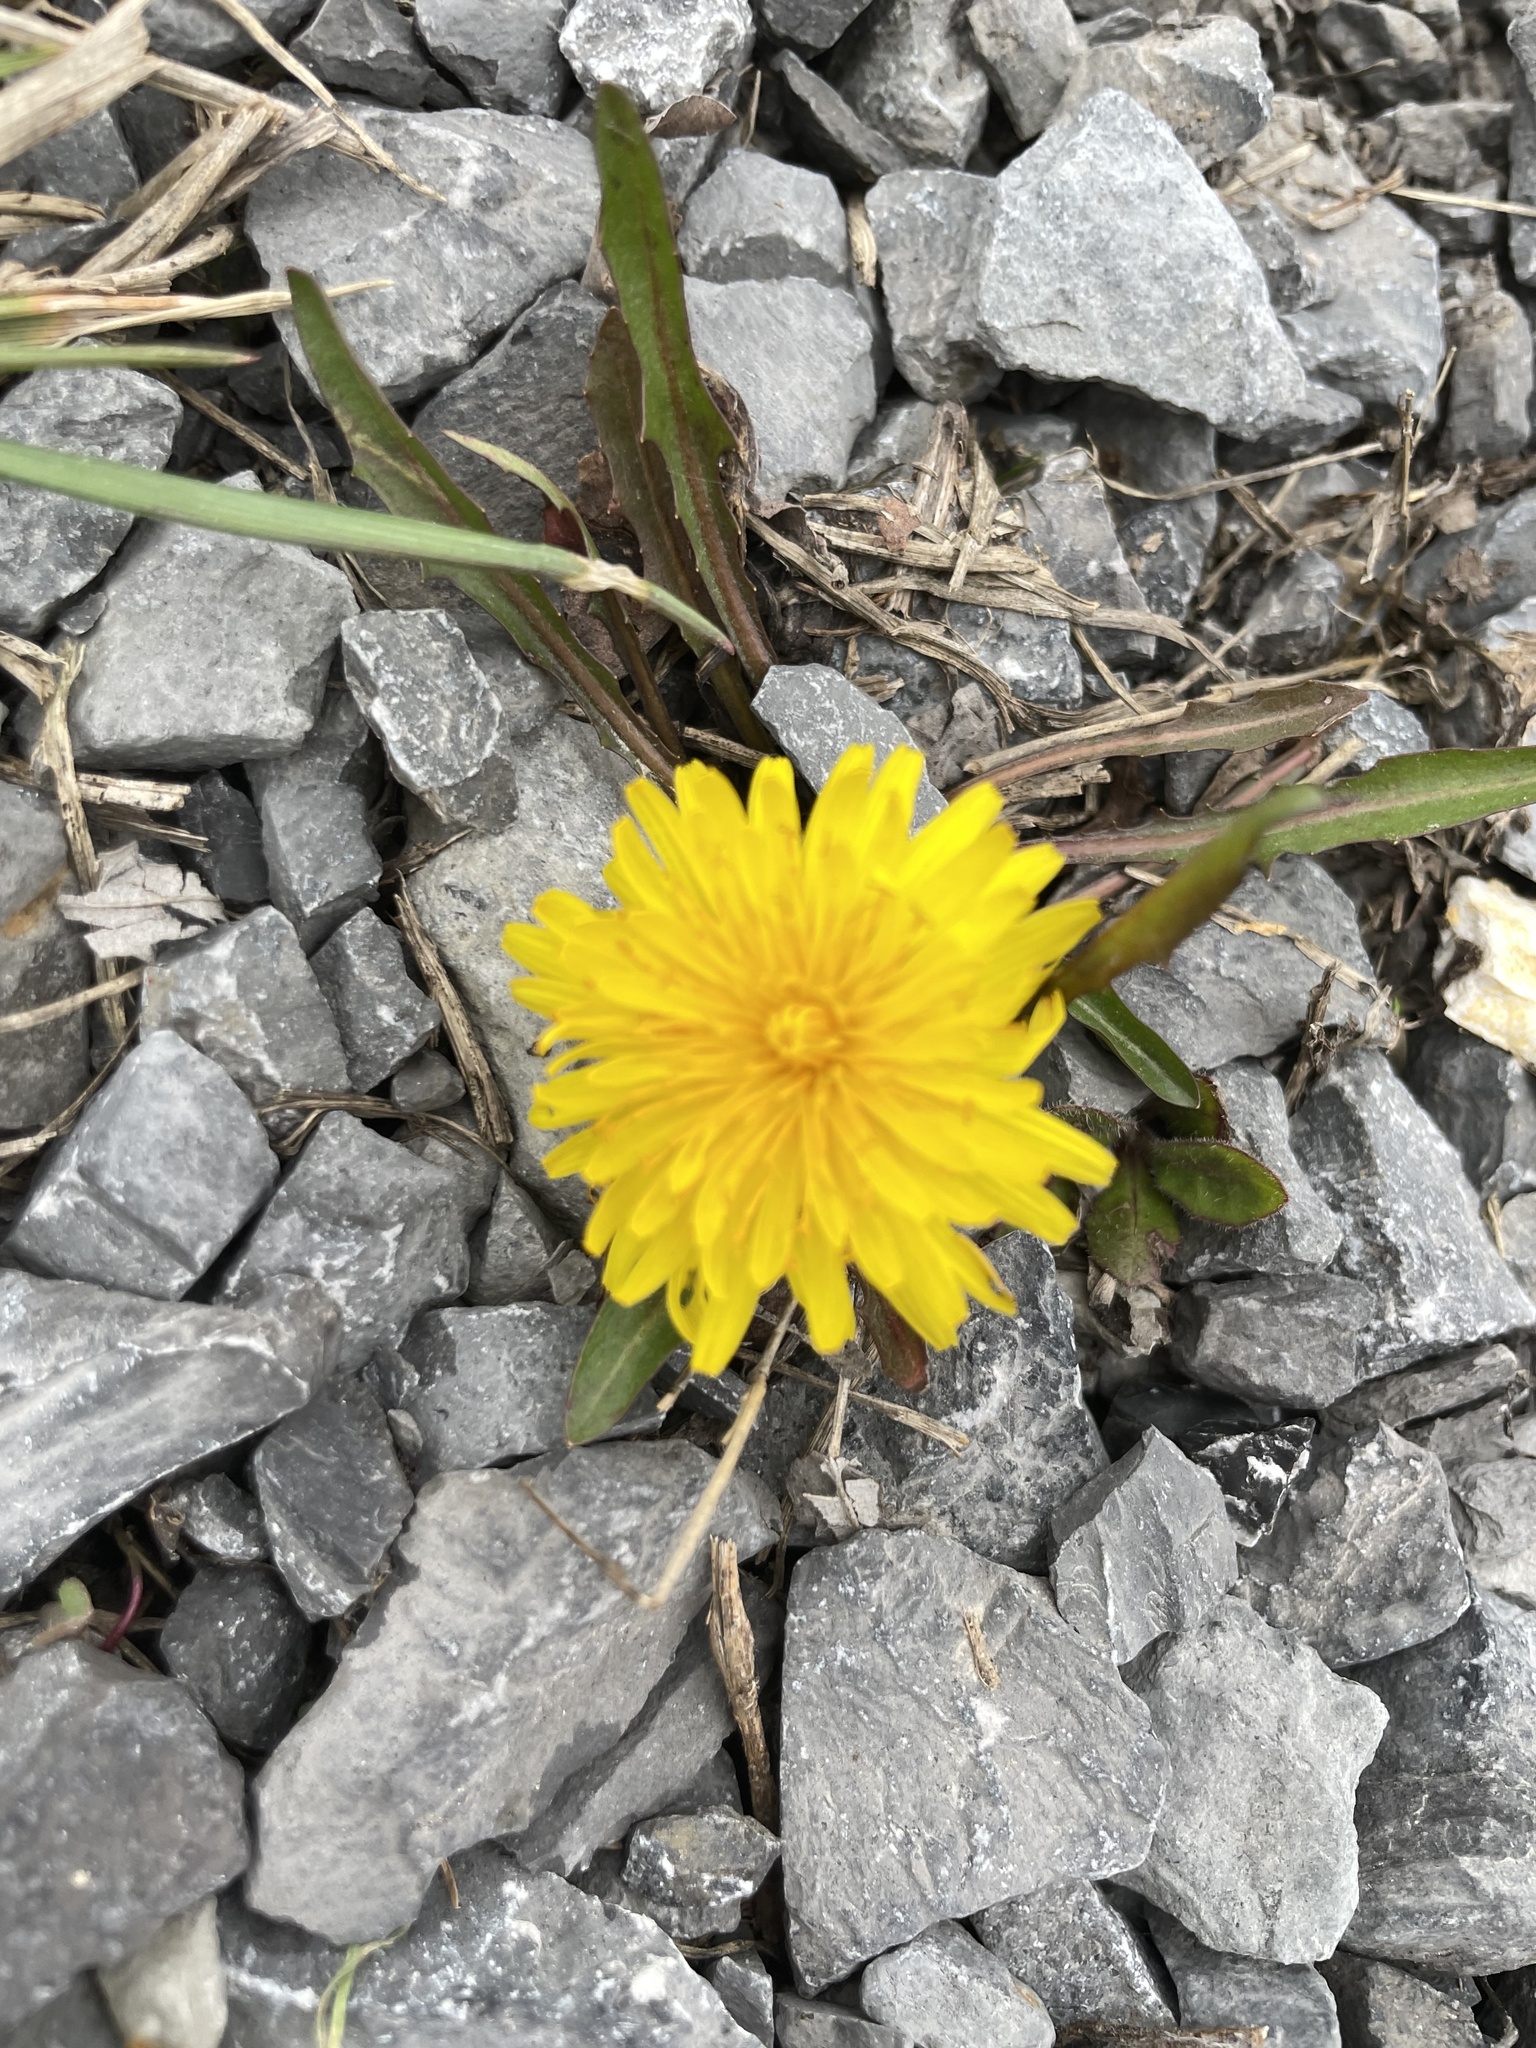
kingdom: Plantae
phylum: Tracheophyta
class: Magnoliopsida
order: Asterales
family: Asteraceae
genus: Taraxacum
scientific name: Taraxacum
